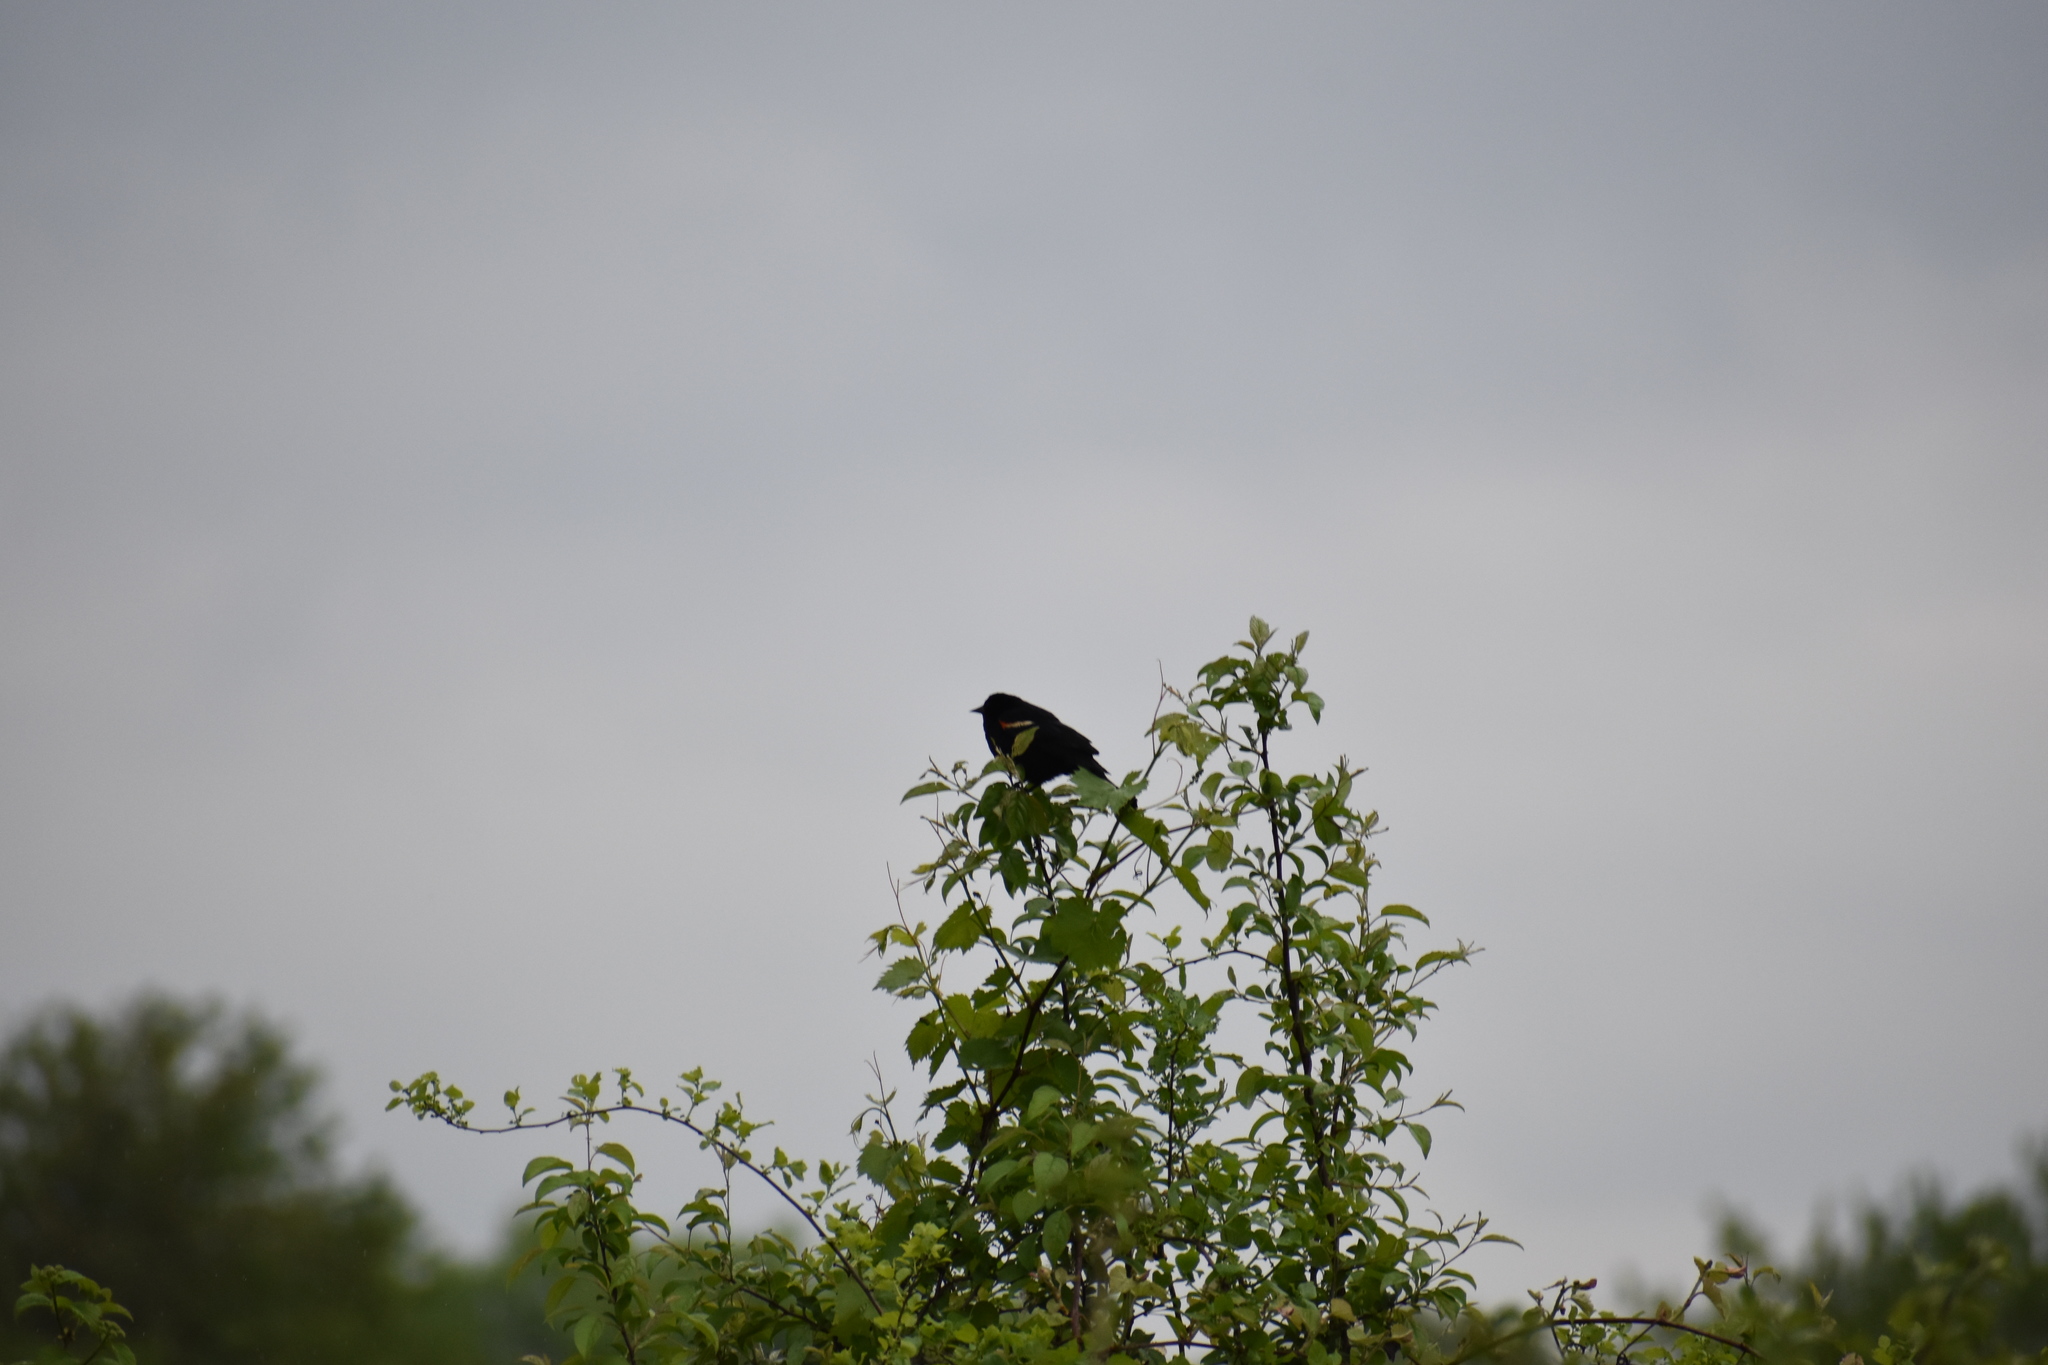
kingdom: Animalia
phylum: Chordata
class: Aves
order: Passeriformes
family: Icteridae
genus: Agelaius
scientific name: Agelaius phoeniceus
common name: Red-winged blackbird
